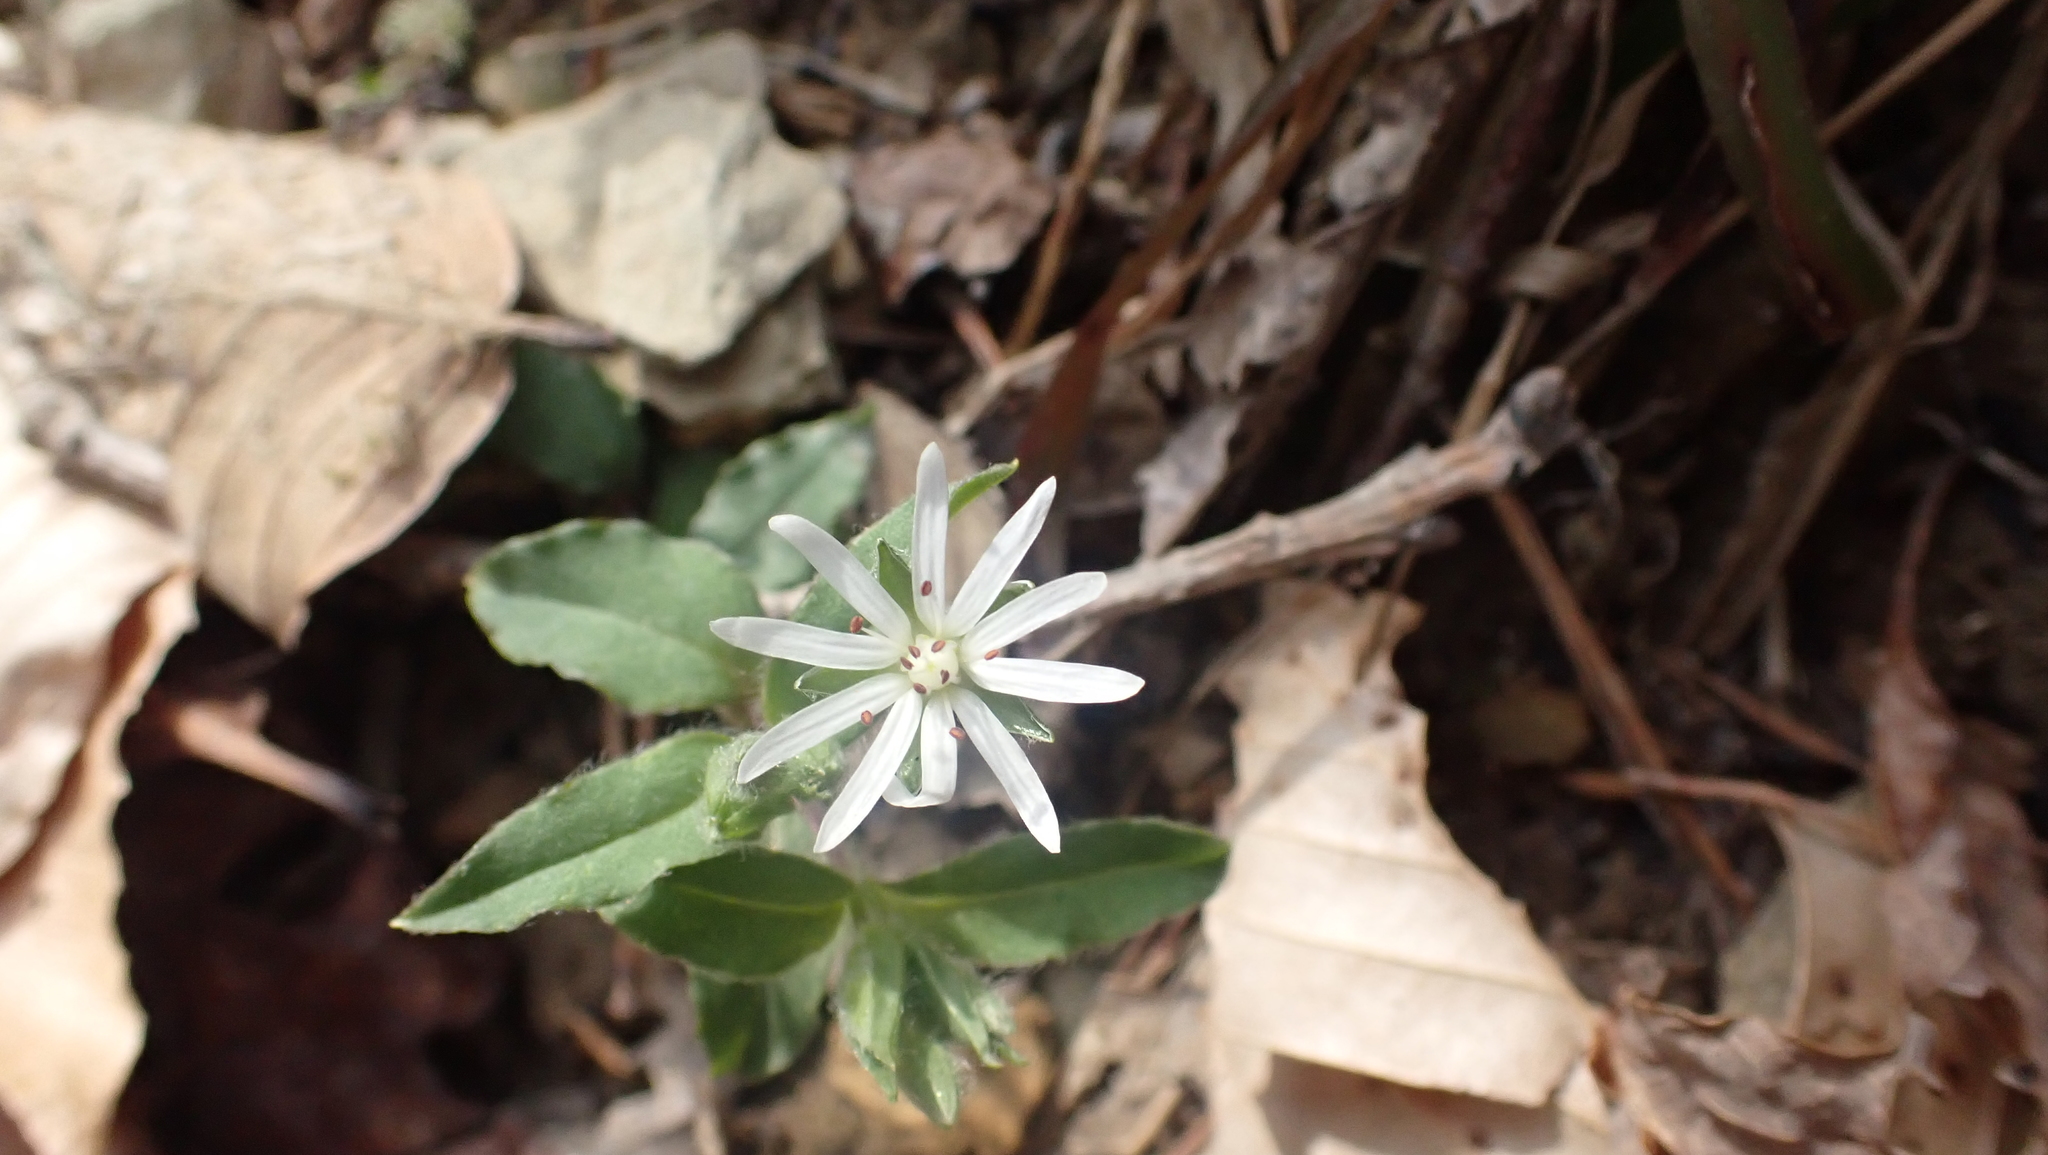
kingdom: Plantae
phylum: Tracheophyta
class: Magnoliopsida
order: Caryophyllales
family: Caryophyllaceae
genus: Stellaria
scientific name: Stellaria pubera
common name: Star chickweed
